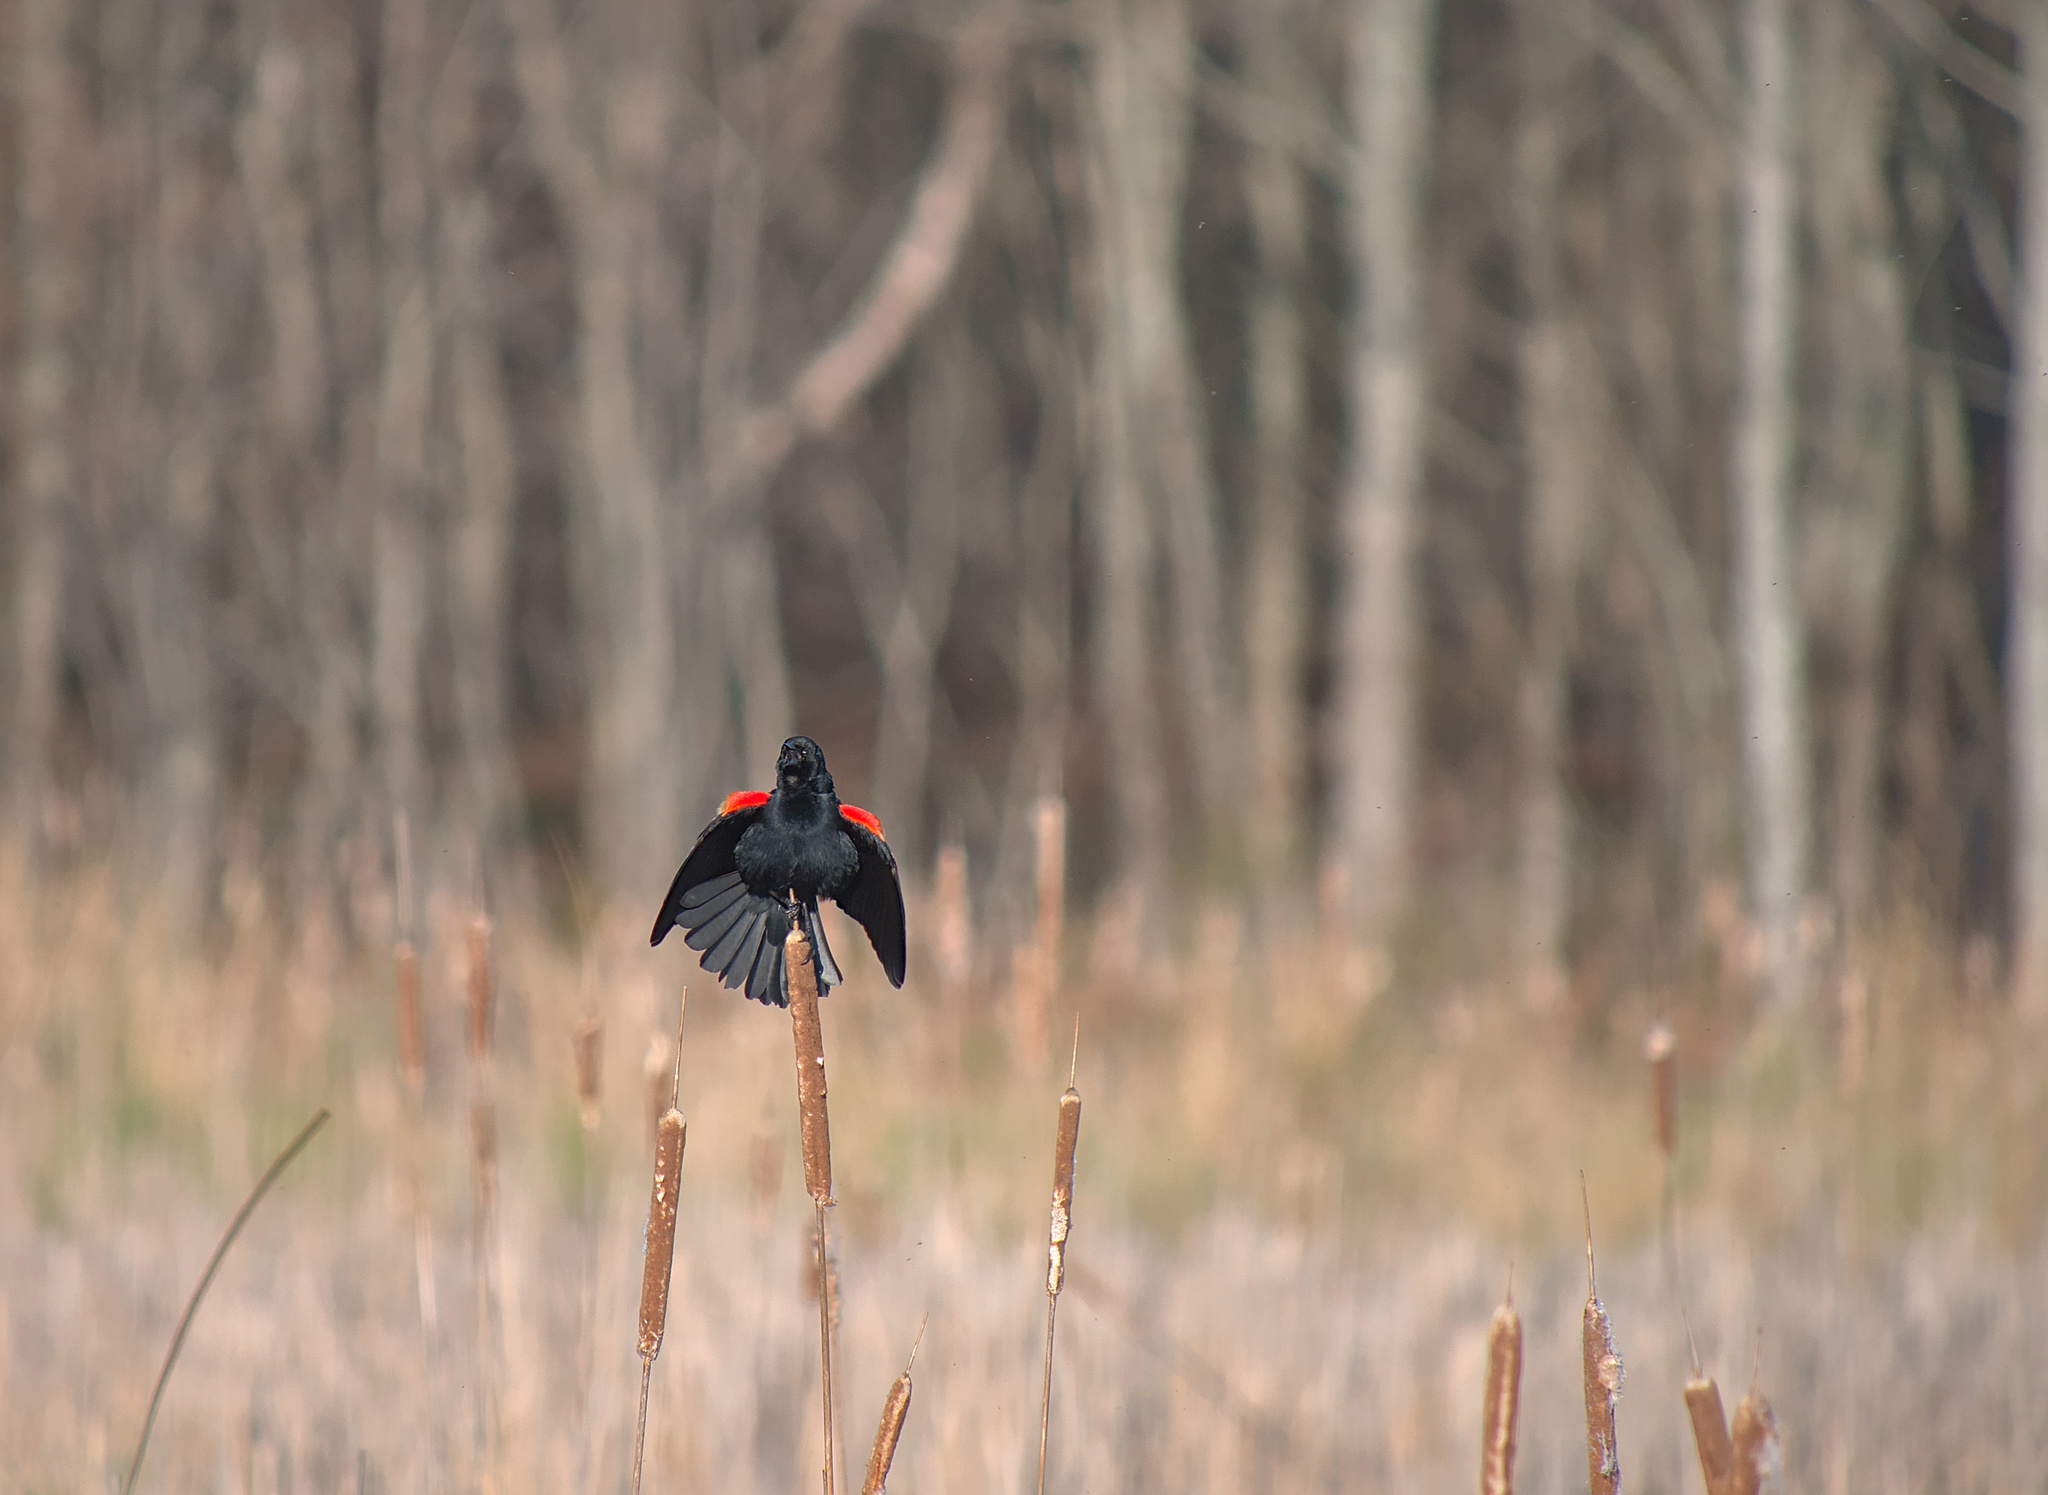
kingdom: Animalia
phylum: Chordata
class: Aves
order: Passeriformes
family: Icteridae
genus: Agelaius
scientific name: Agelaius phoeniceus
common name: Red-winged blackbird
